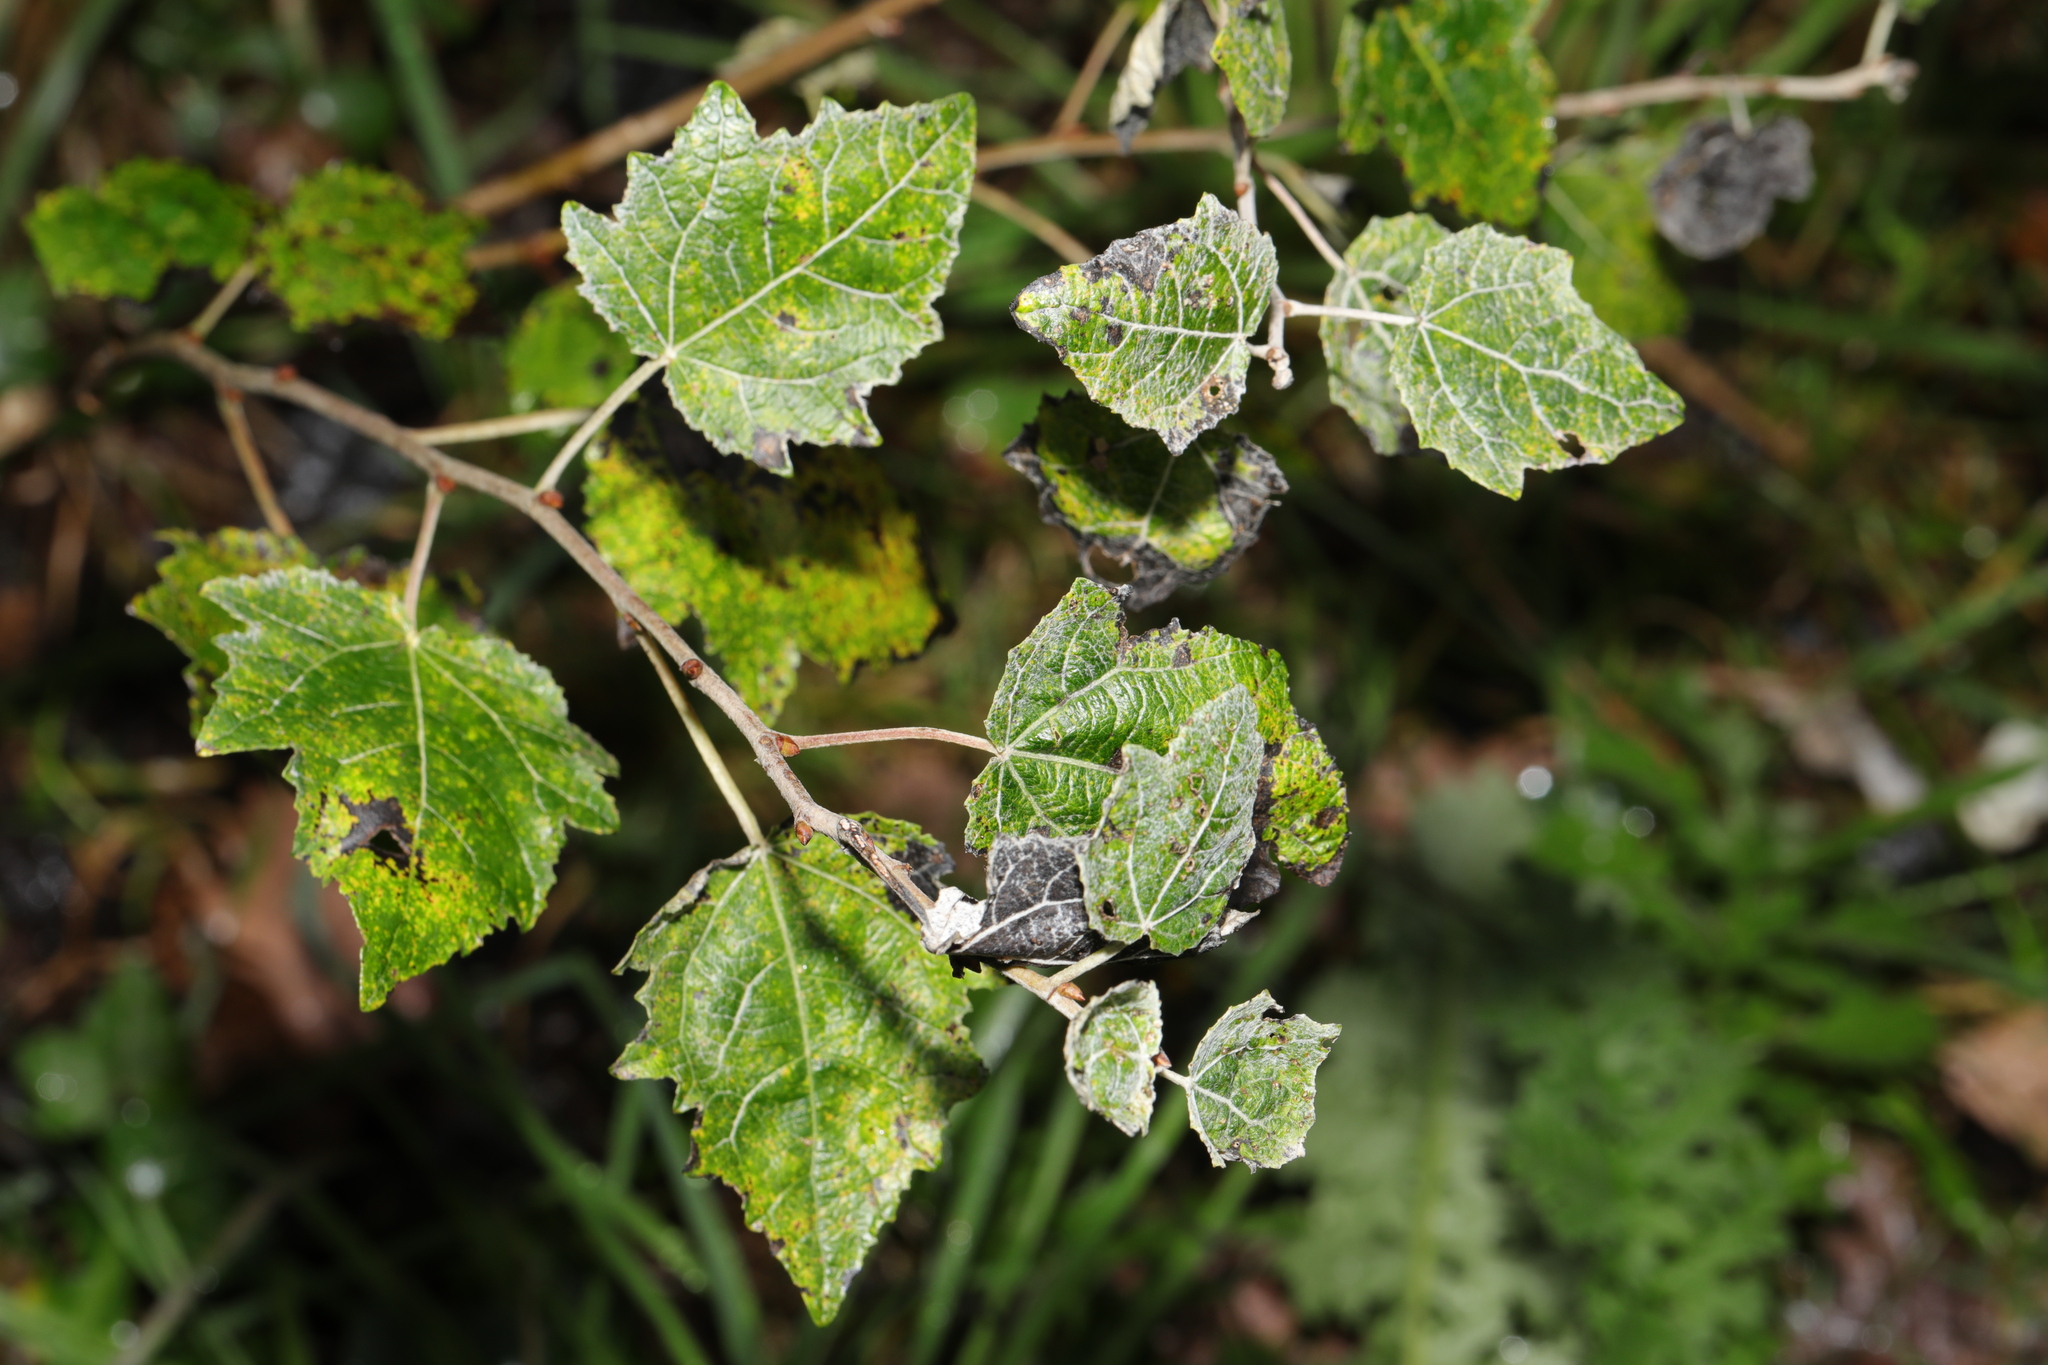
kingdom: Plantae
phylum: Tracheophyta
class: Magnoliopsida
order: Malpighiales
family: Salicaceae
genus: Populus
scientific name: Populus canescens
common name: Gray poplar
